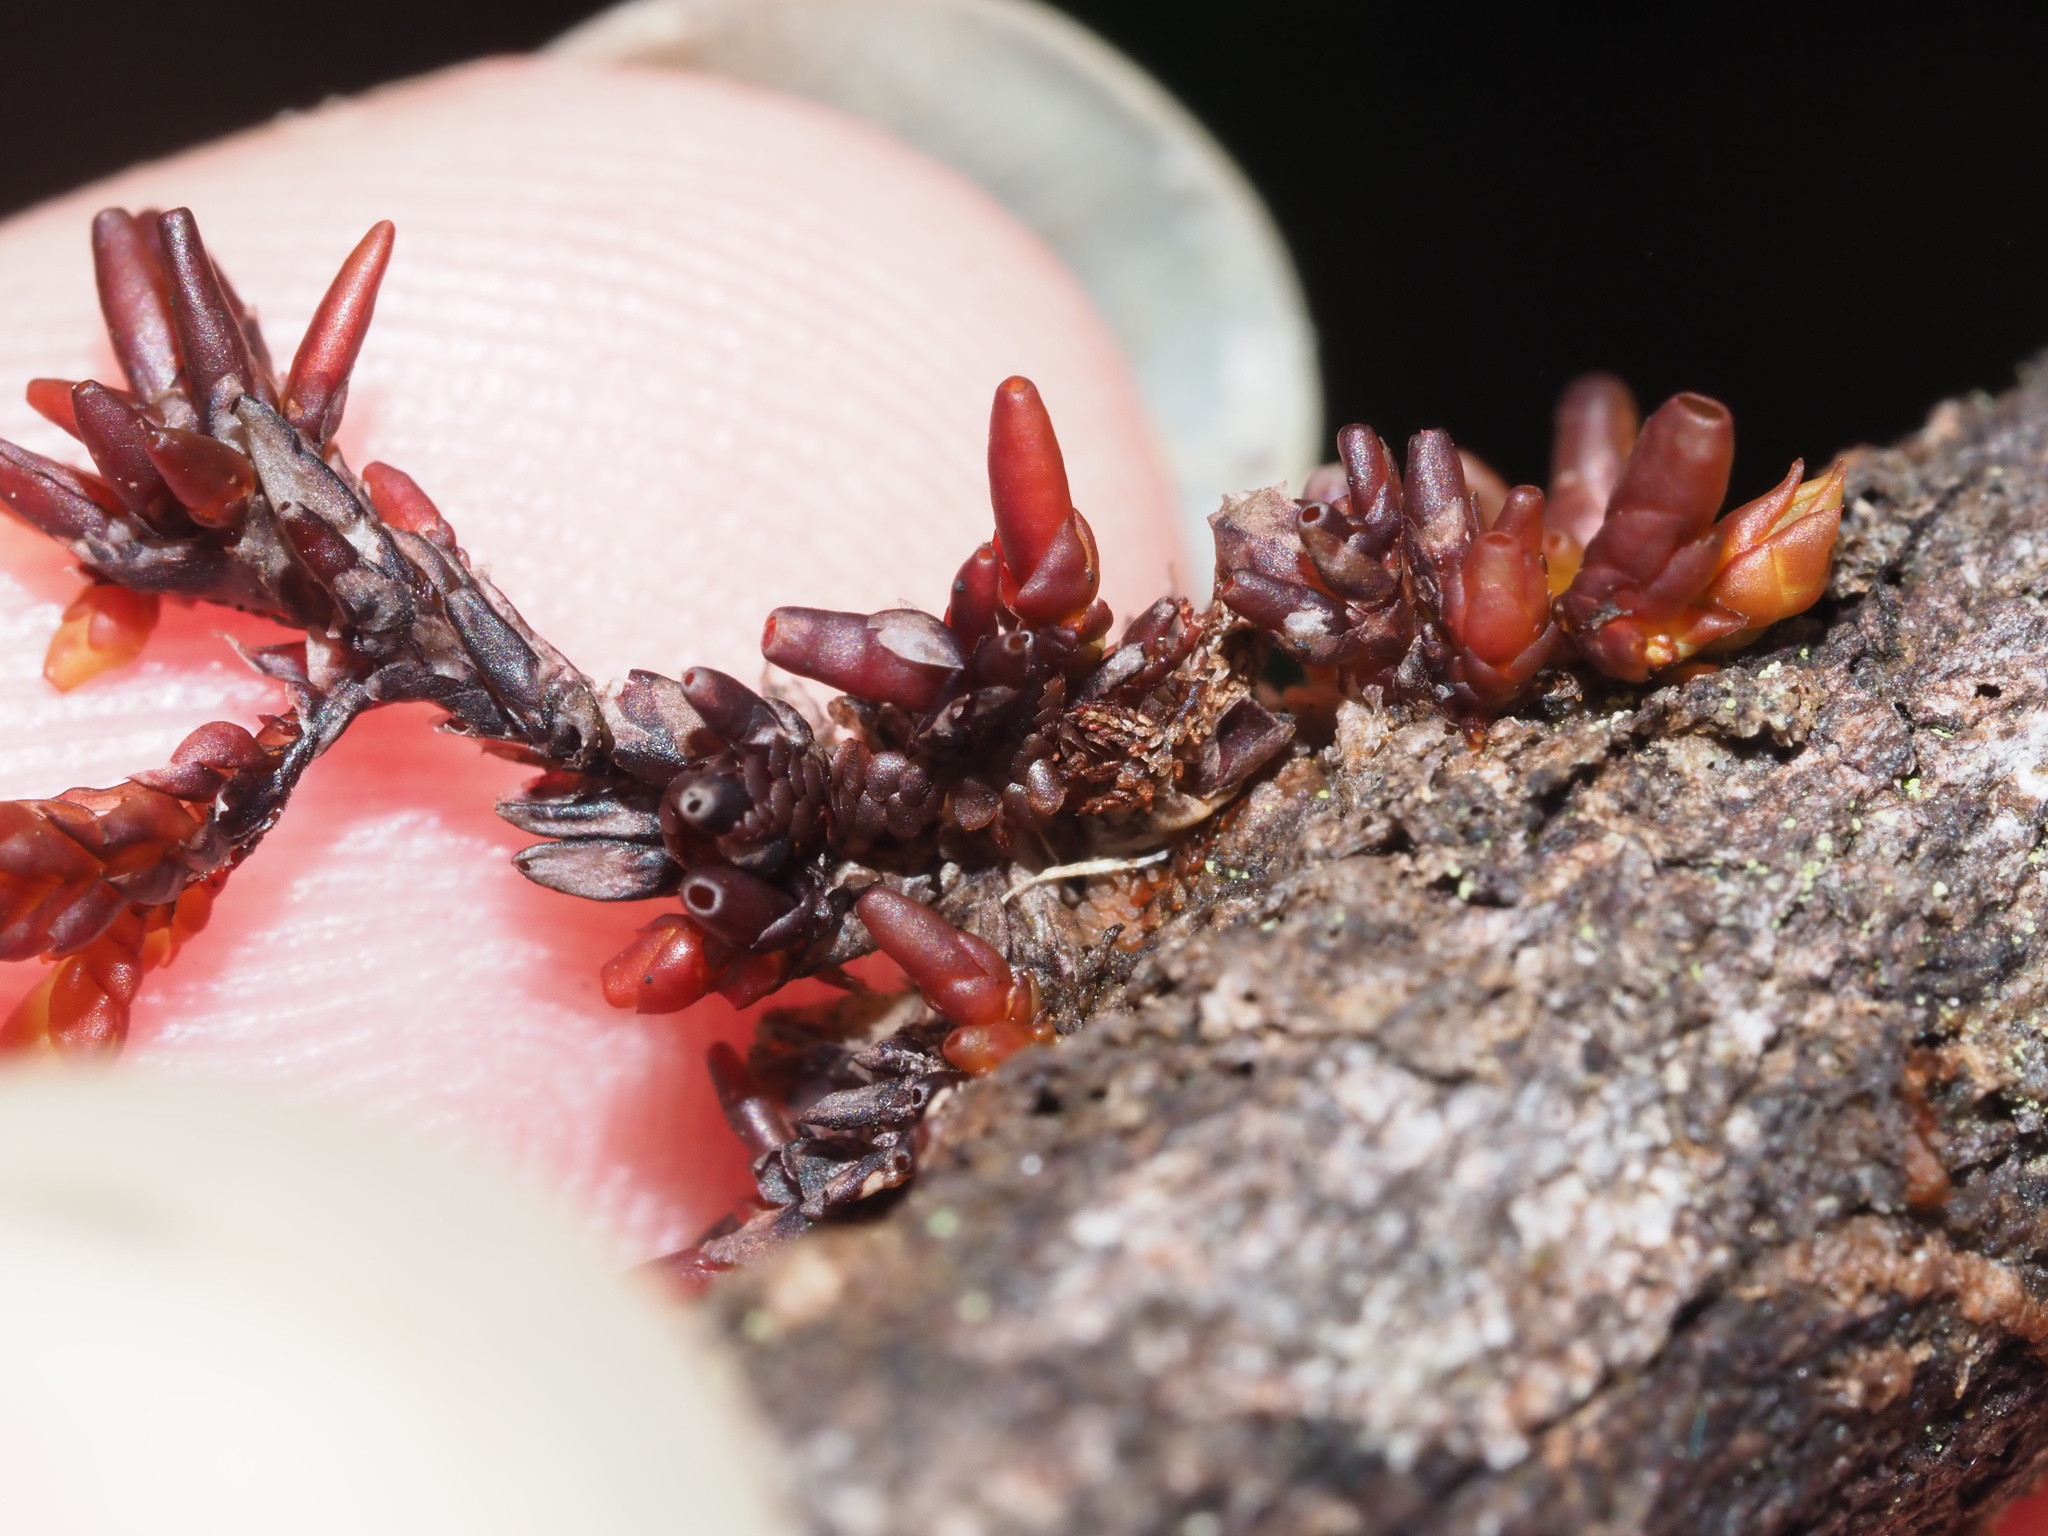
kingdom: Plantae
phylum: Marchantiophyta
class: Jungermanniopsida
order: Pleuroziales
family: Pleuroziaceae
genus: Pleurozia
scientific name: Pleurozia subinflata
